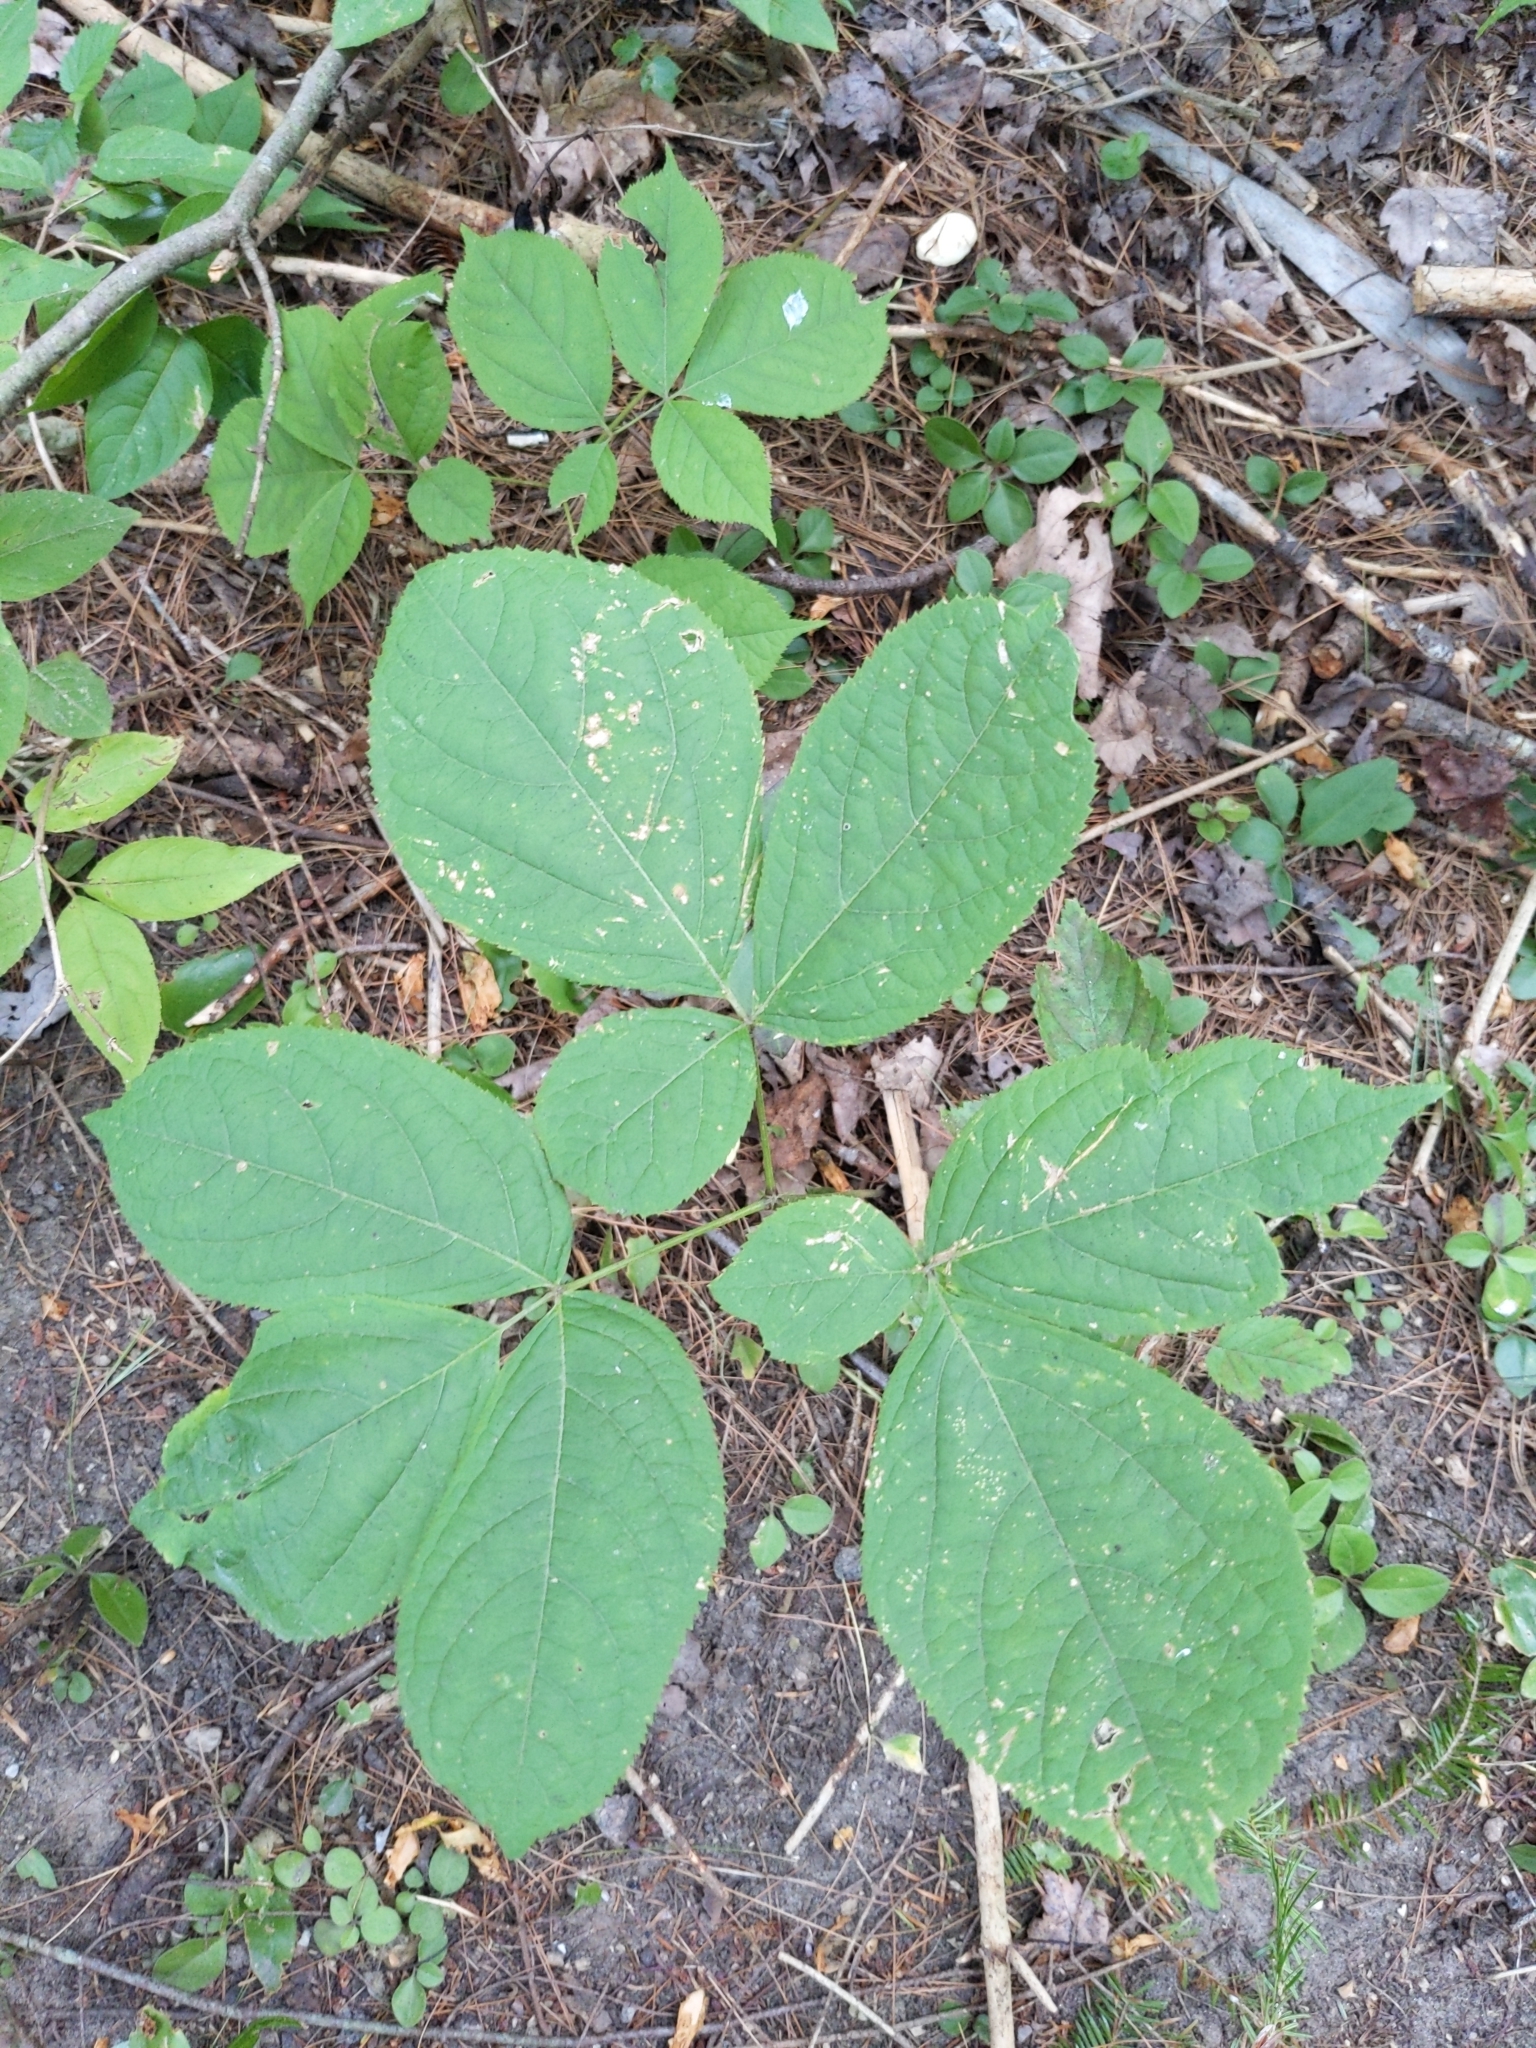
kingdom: Plantae
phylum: Tracheophyta
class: Magnoliopsida
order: Apiales
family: Araliaceae
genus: Aralia
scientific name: Aralia nudicaulis
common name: Wild sarsaparilla
